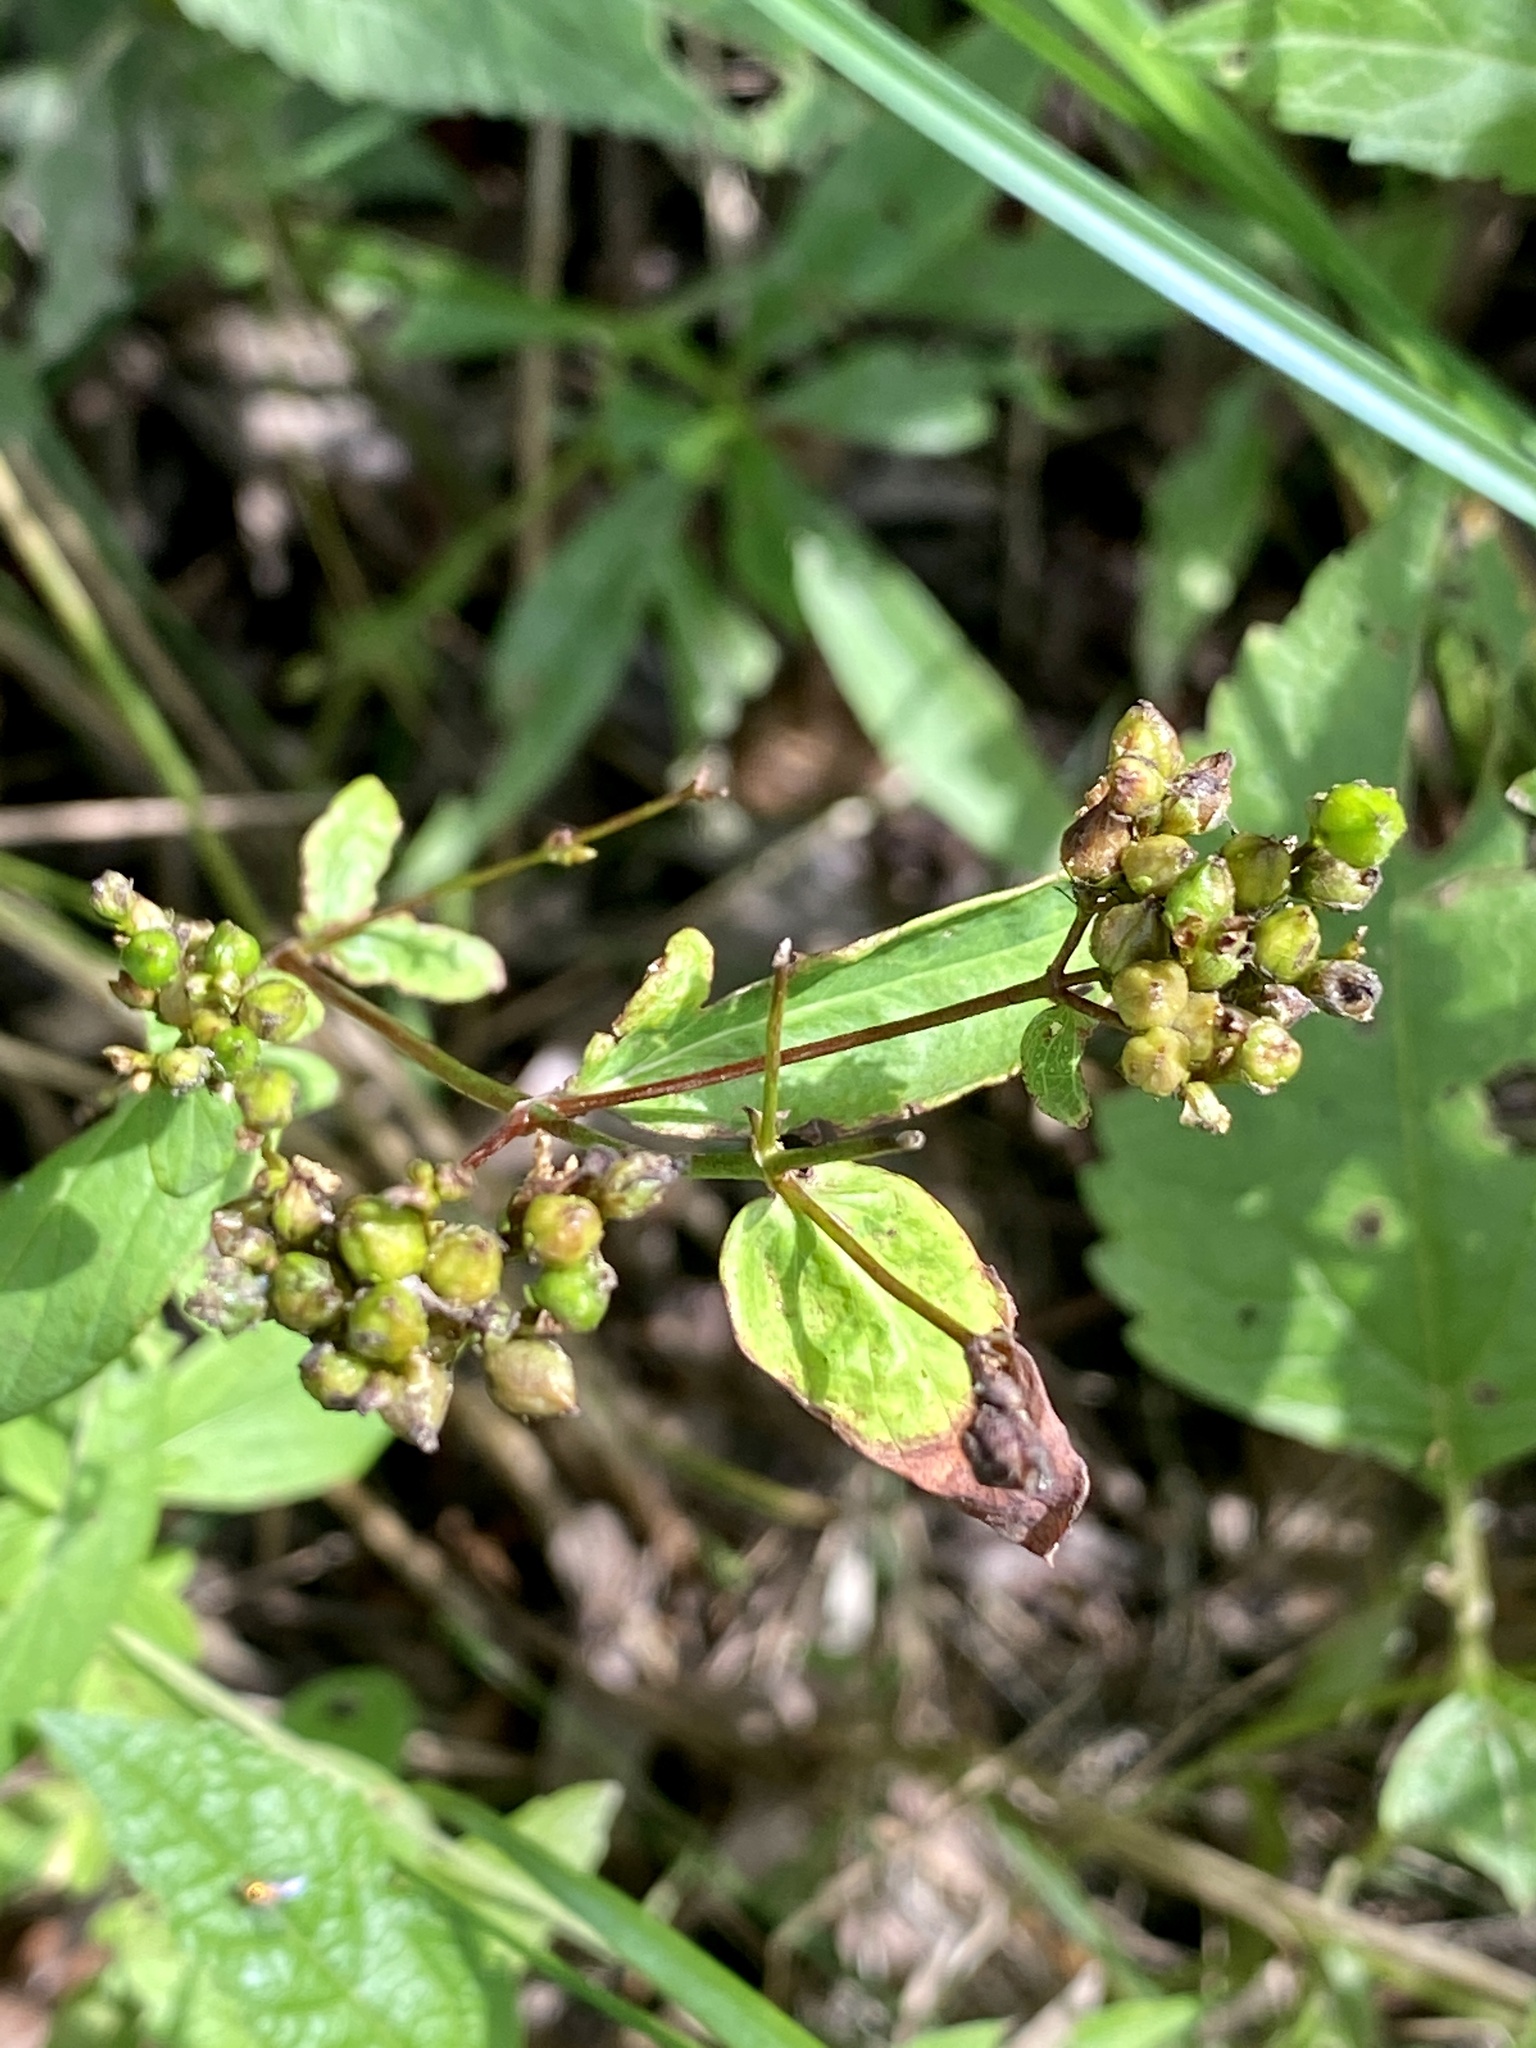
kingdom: Plantae
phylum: Tracheophyta
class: Magnoliopsida
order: Malpighiales
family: Hypericaceae
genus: Hypericum
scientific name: Hypericum punctatum
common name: Spotted st. john's-wort
